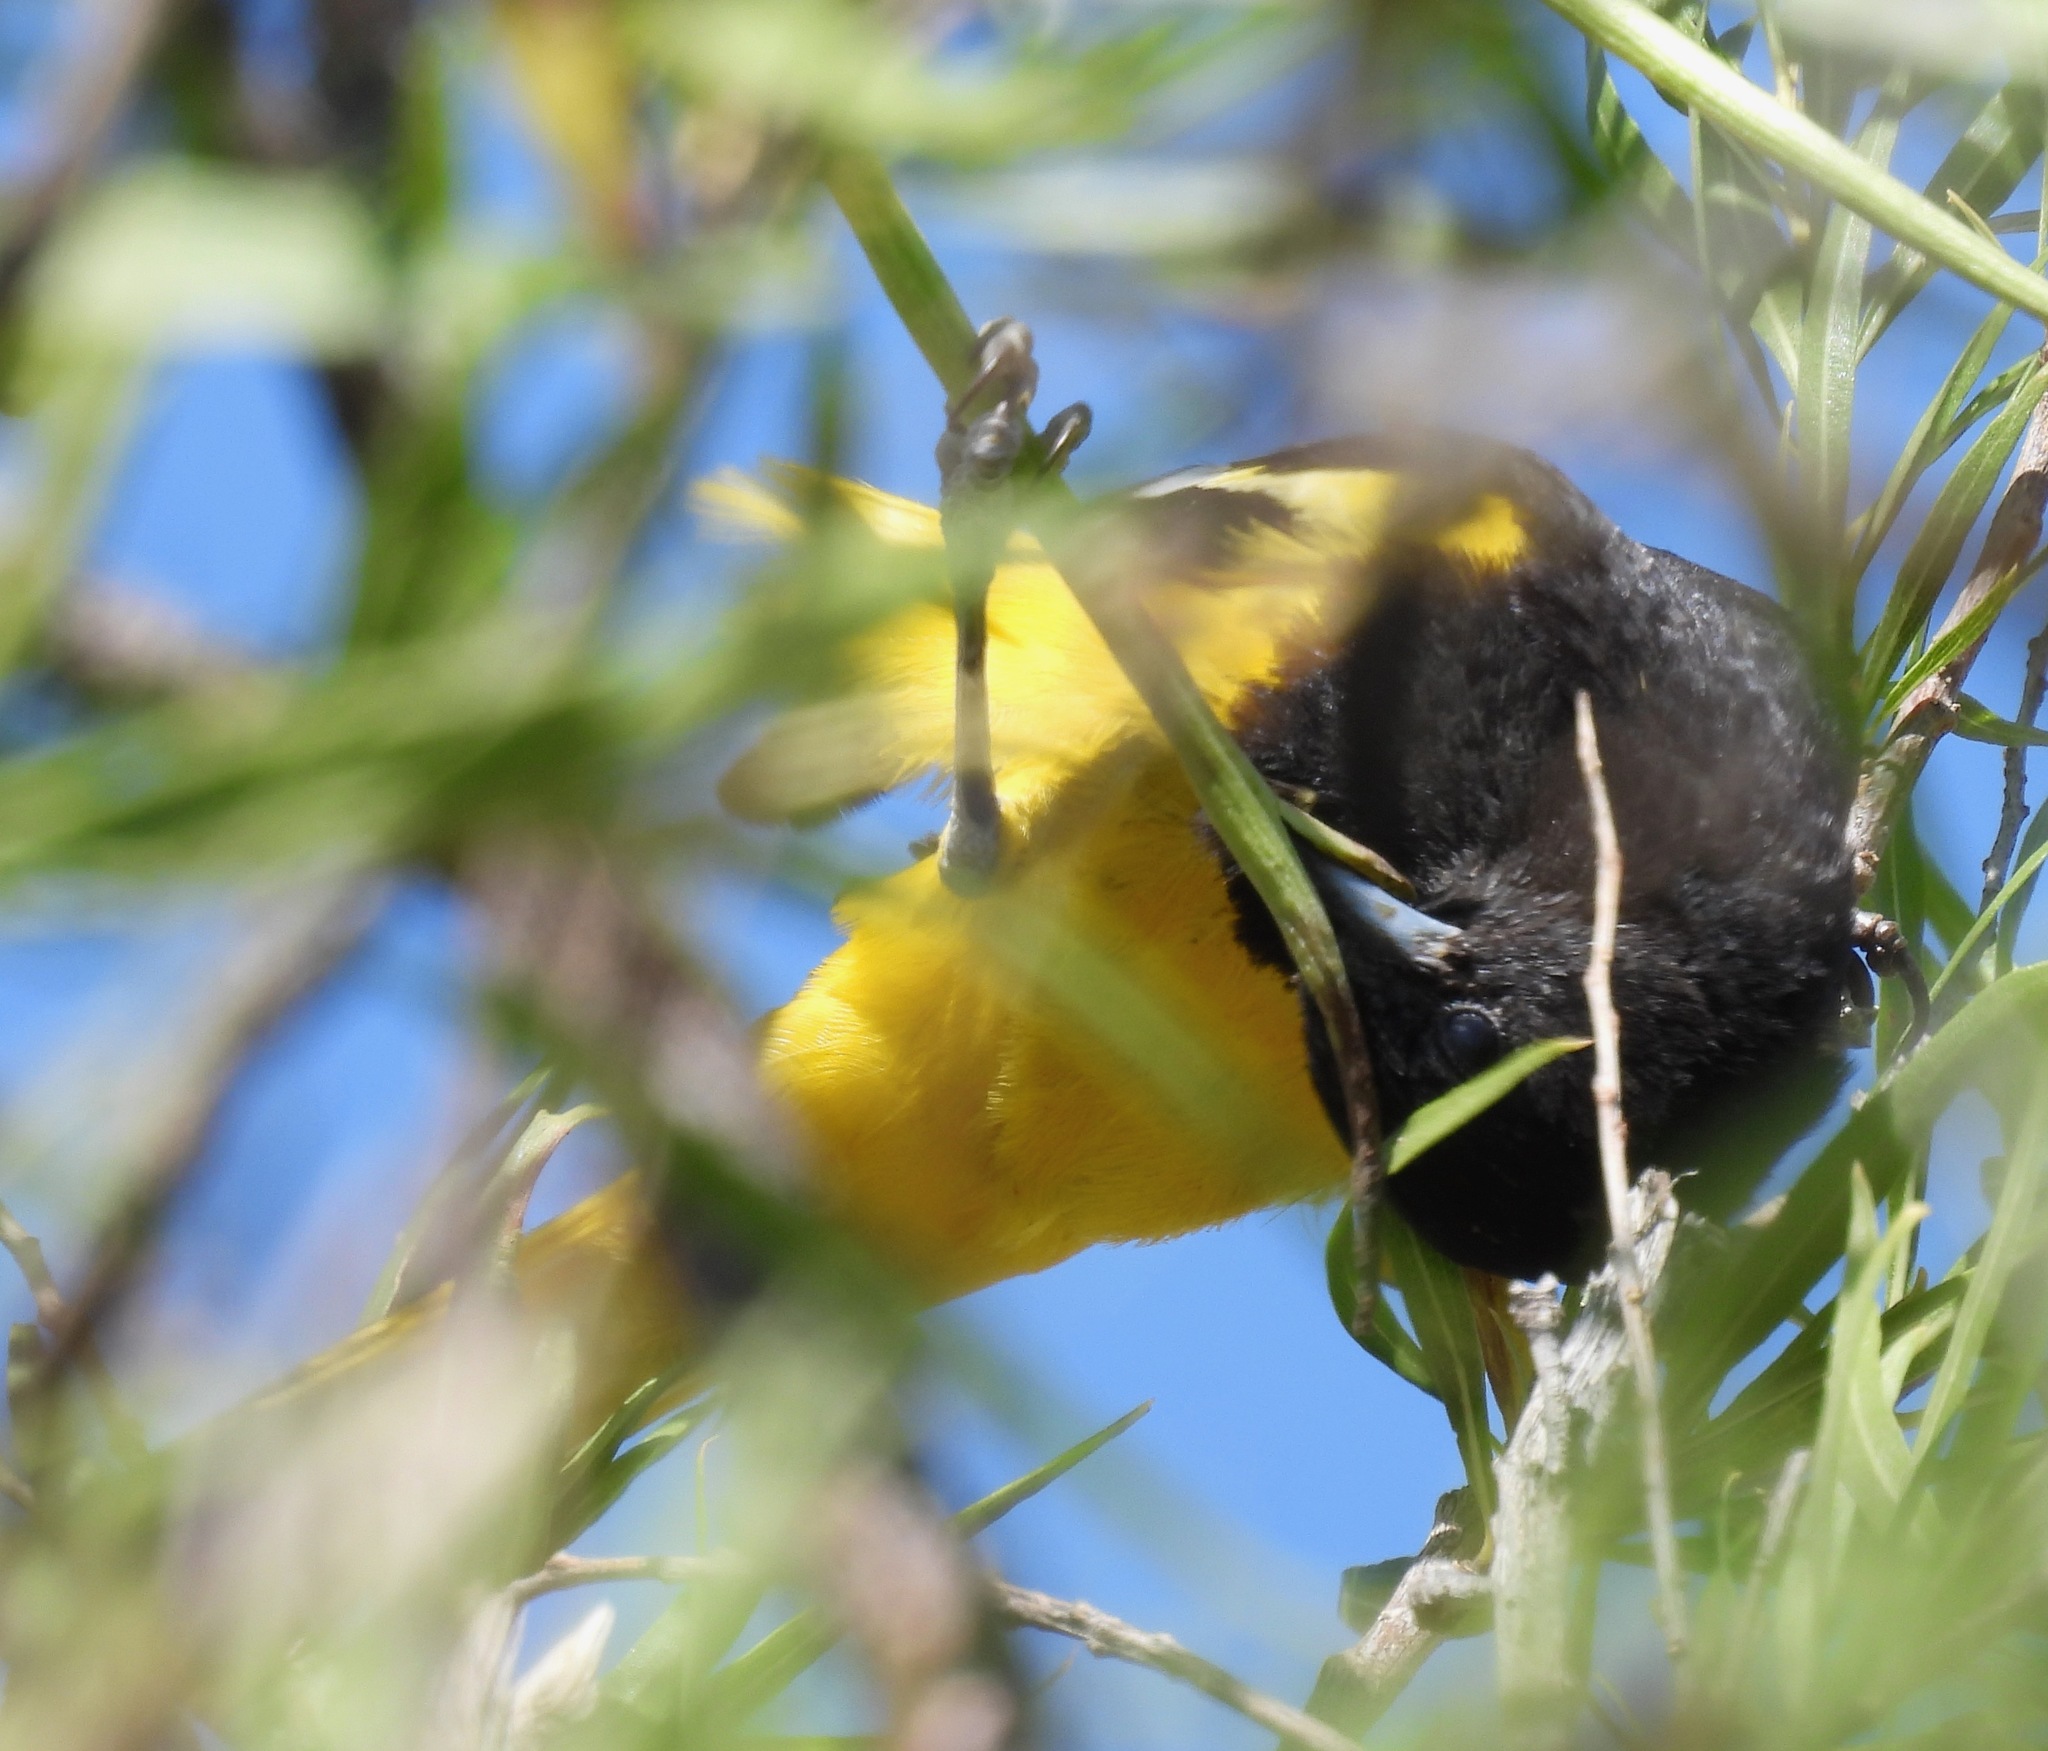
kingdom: Animalia
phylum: Chordata
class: Aves
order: Passeriformes
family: Icteridae
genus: Icterus
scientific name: Icterus parisorum
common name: Scott's oriole
